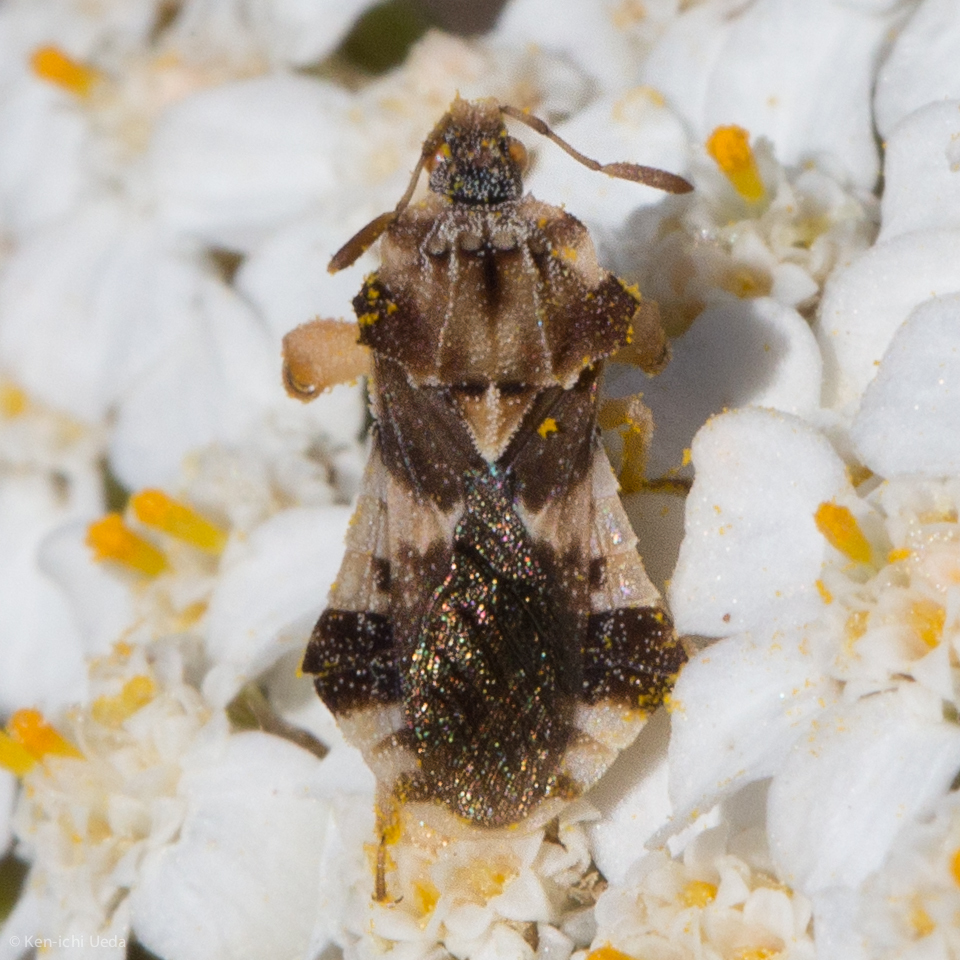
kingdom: Animalia
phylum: Arthropoda
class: Insecta
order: Hemiptera
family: Reduviidae
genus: Phymata
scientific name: Phymata pacifica
